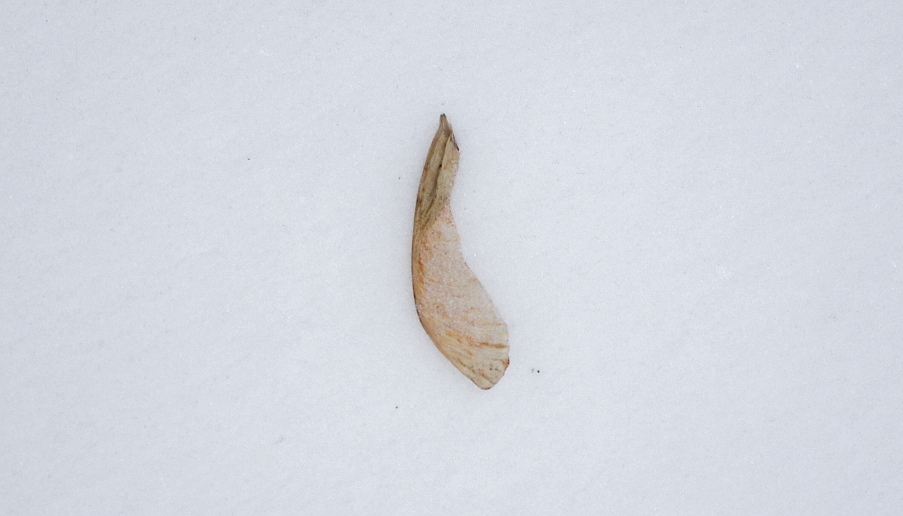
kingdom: Plantae
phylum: Tracheophyta
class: Magnoliopsida
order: Sapindales
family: Sapindaceae
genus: Acer
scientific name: Acer negundo
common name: Ashleaf maple
